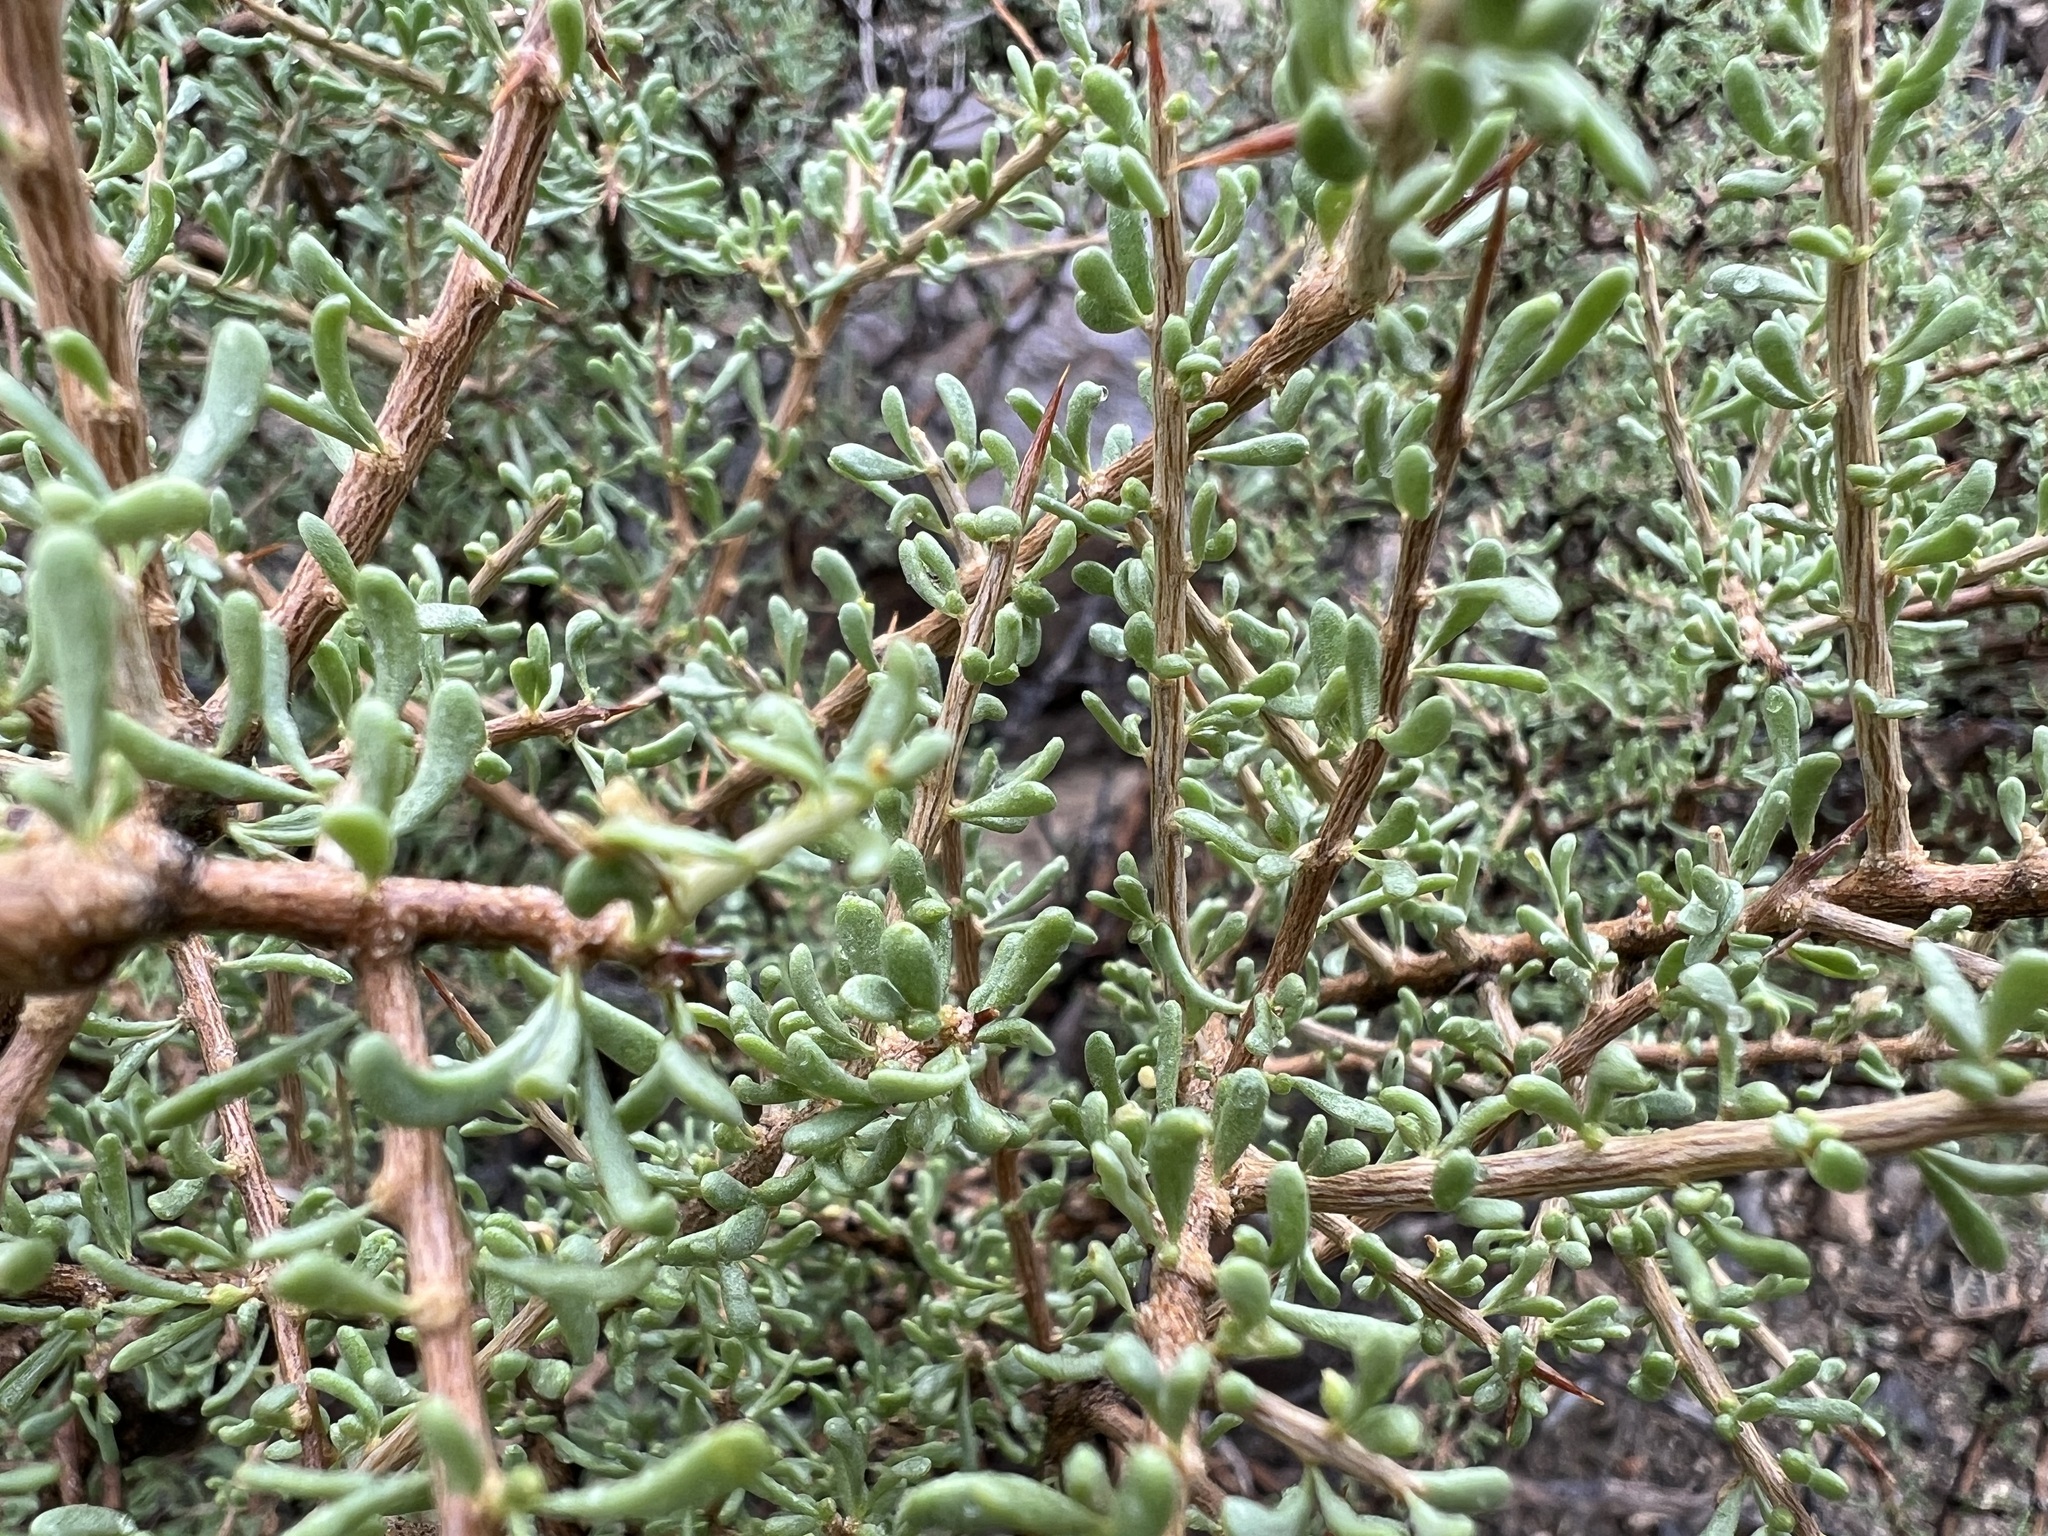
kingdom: Plantae
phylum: Tracheophyta
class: Magnoliopsida
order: Solanales
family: Solanaceae
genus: Lycium
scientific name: Lycium andersonii
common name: Water-jacket
